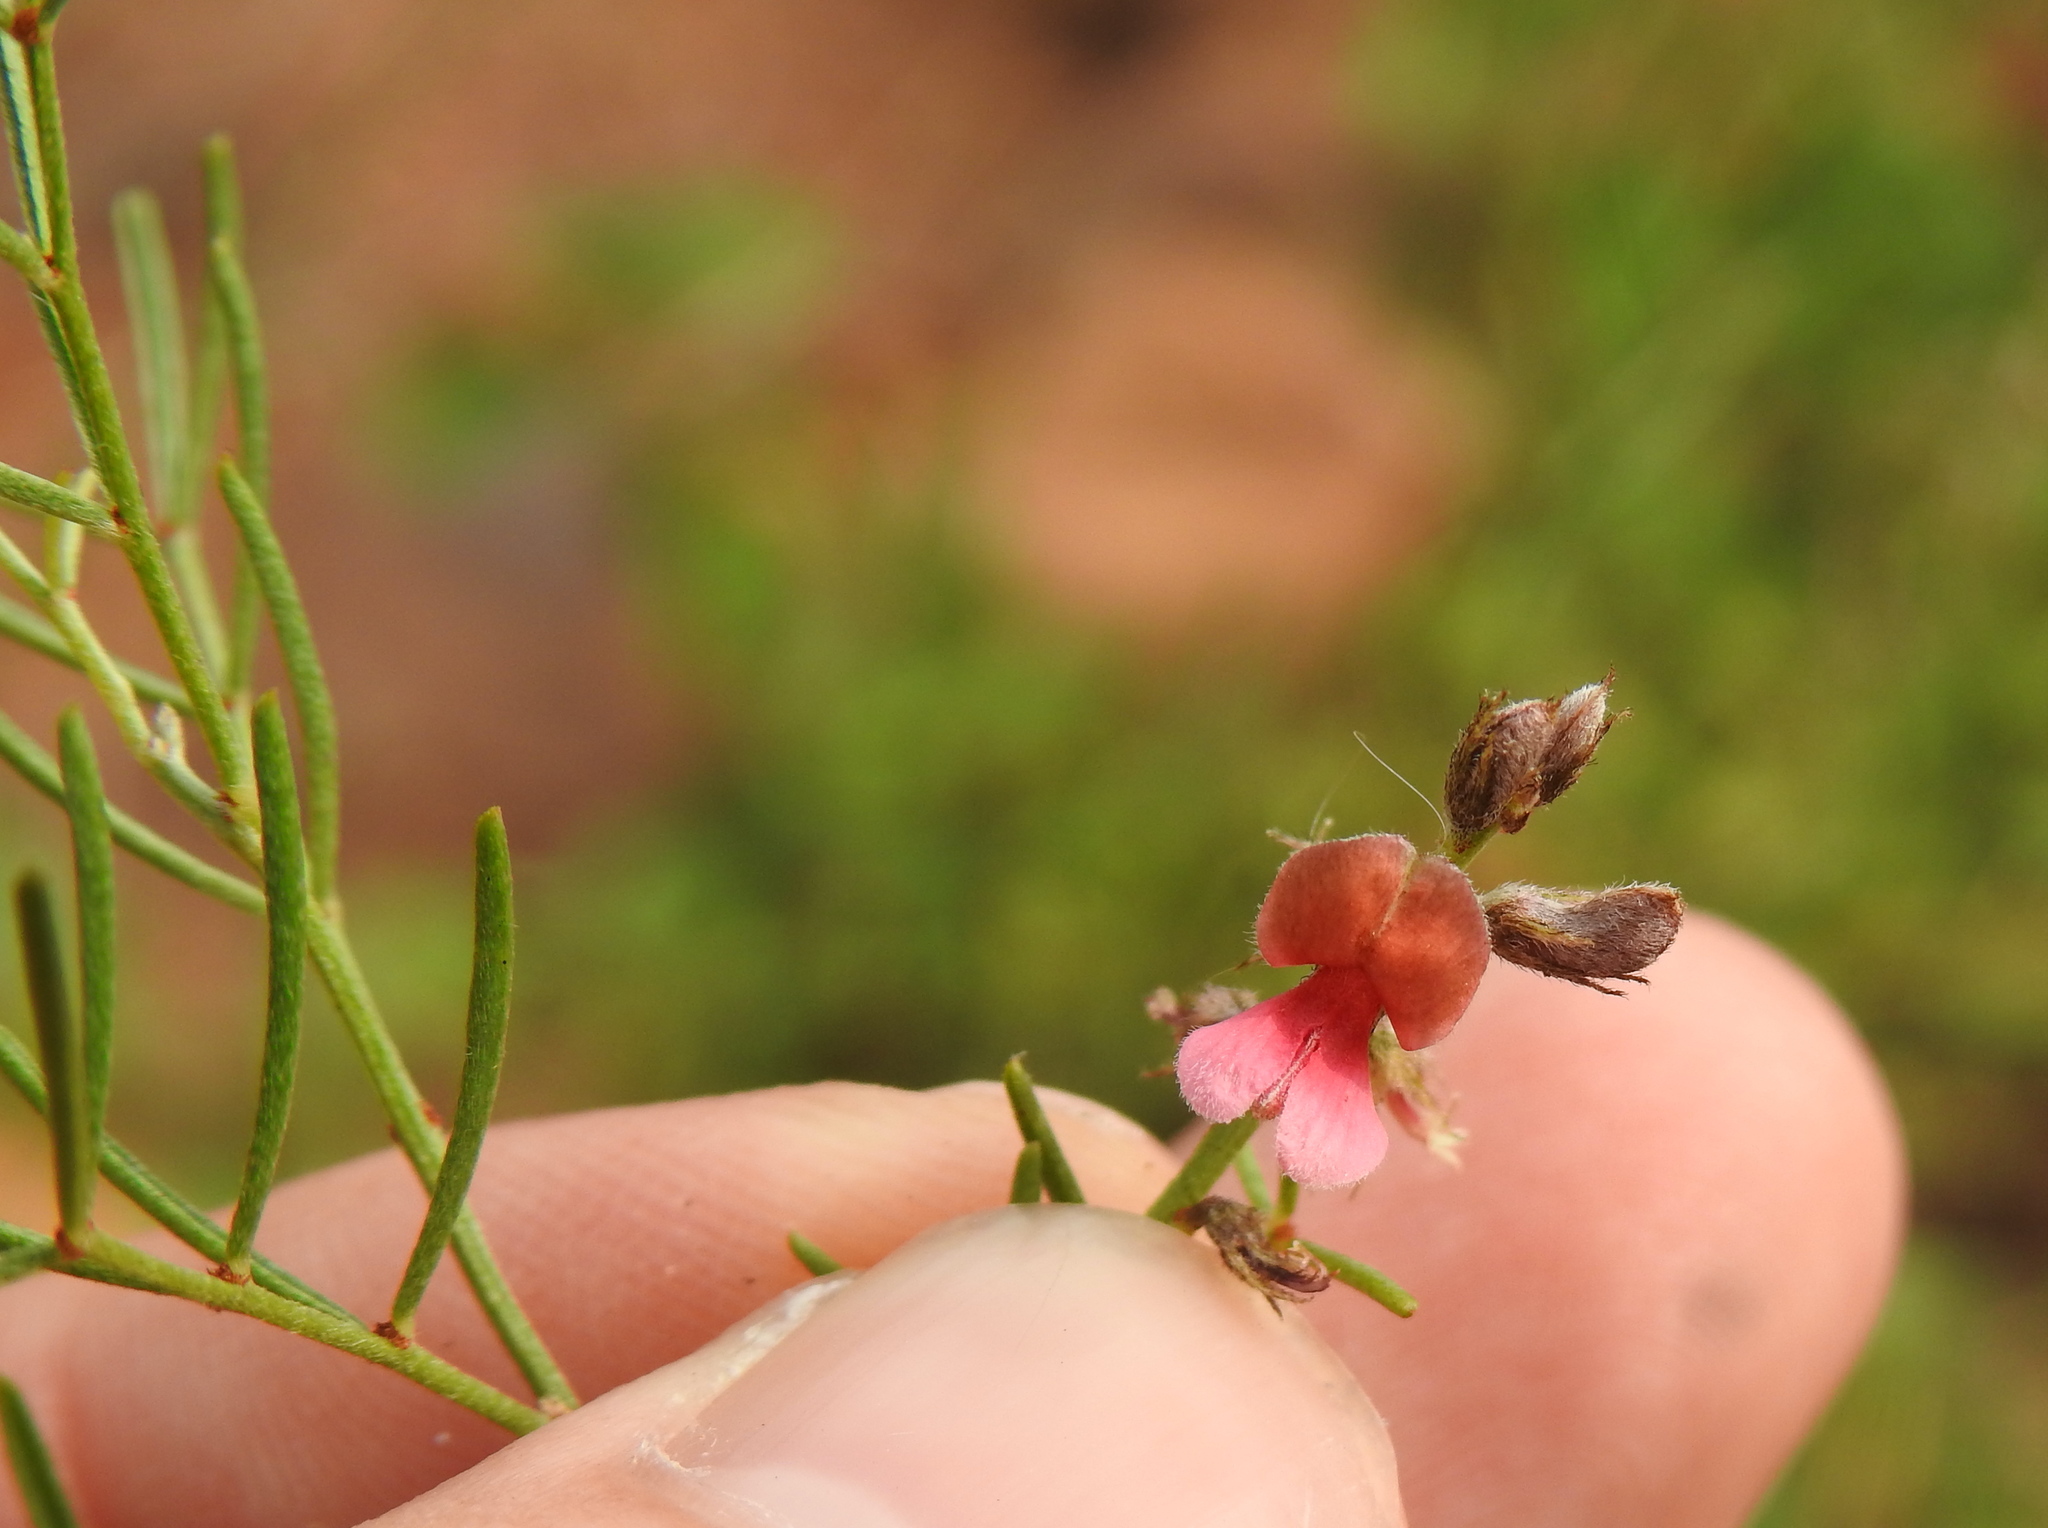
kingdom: Plantae
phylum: Tracheophyta
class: Magnoliopsida
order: Fabales
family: Fabaceae
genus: Indigofera
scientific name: Indigofera pretoriana
